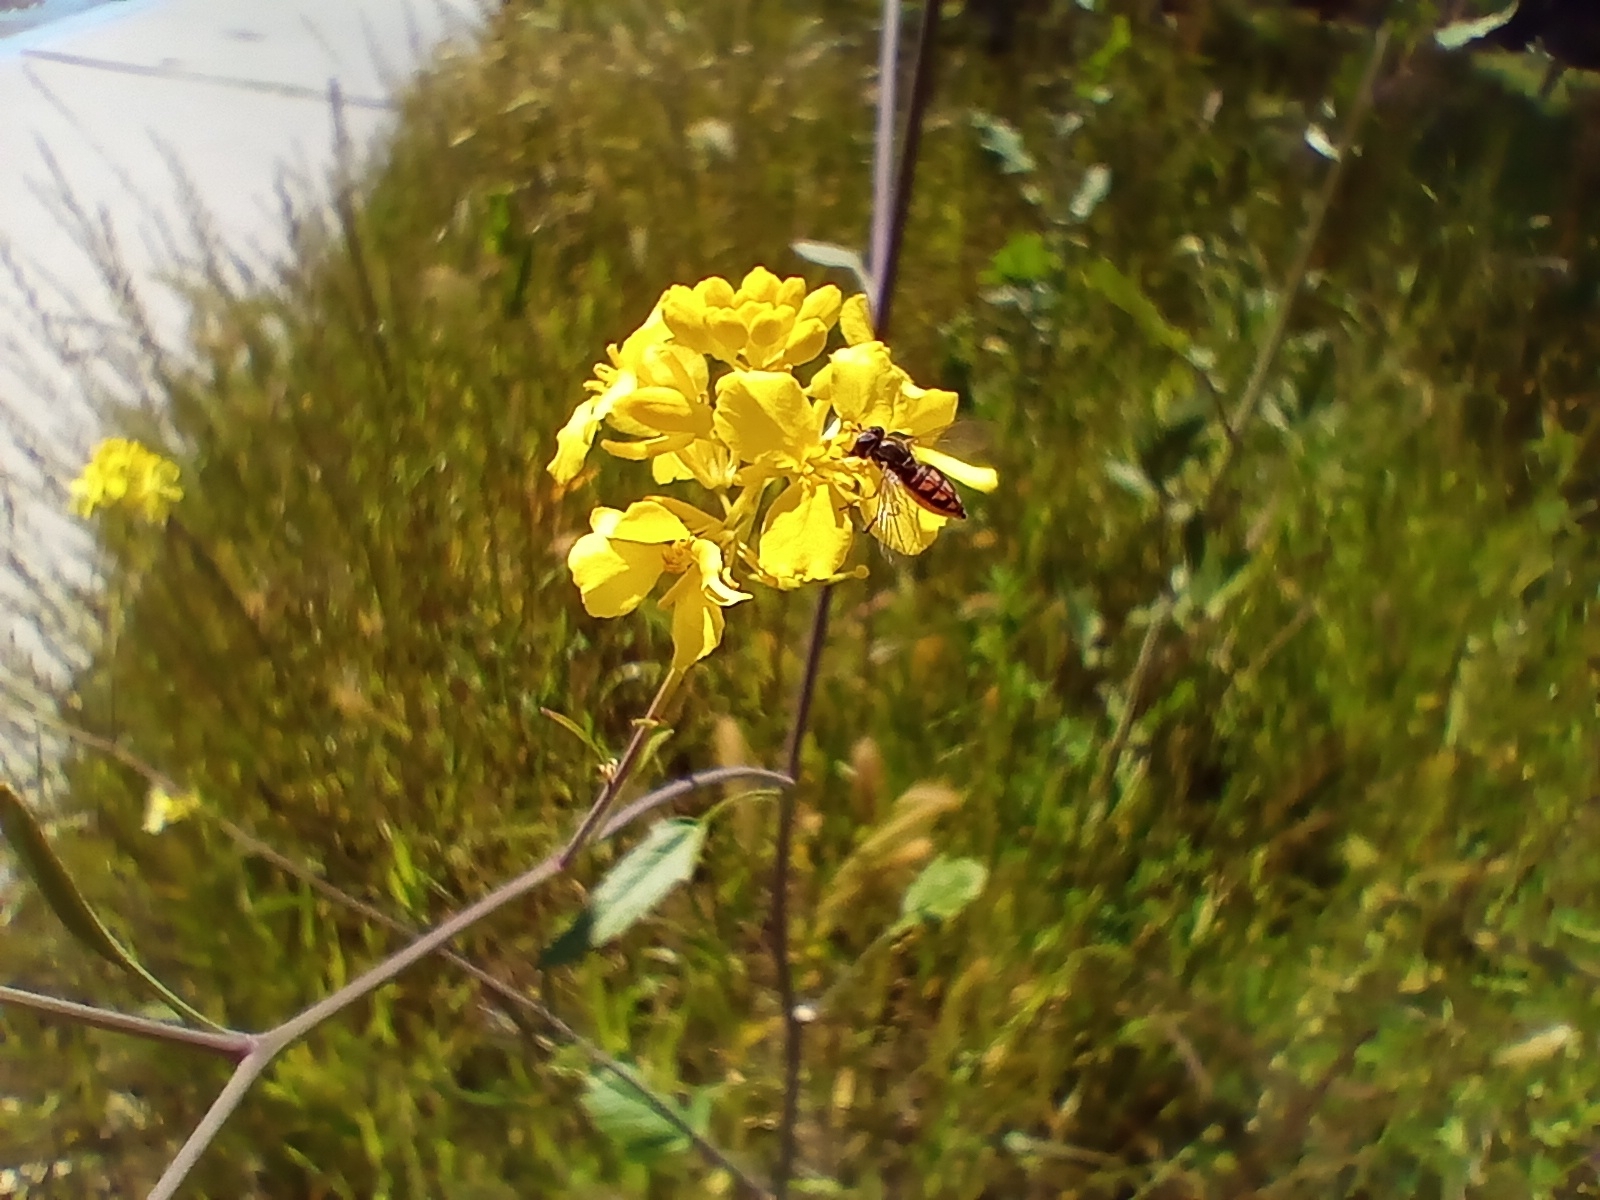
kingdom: Animalia
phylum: Arthropoda
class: Insecta
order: Diptera
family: Syrphidae
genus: Toxomerus
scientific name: Toxomerus marginatus
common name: Syrphid fly
